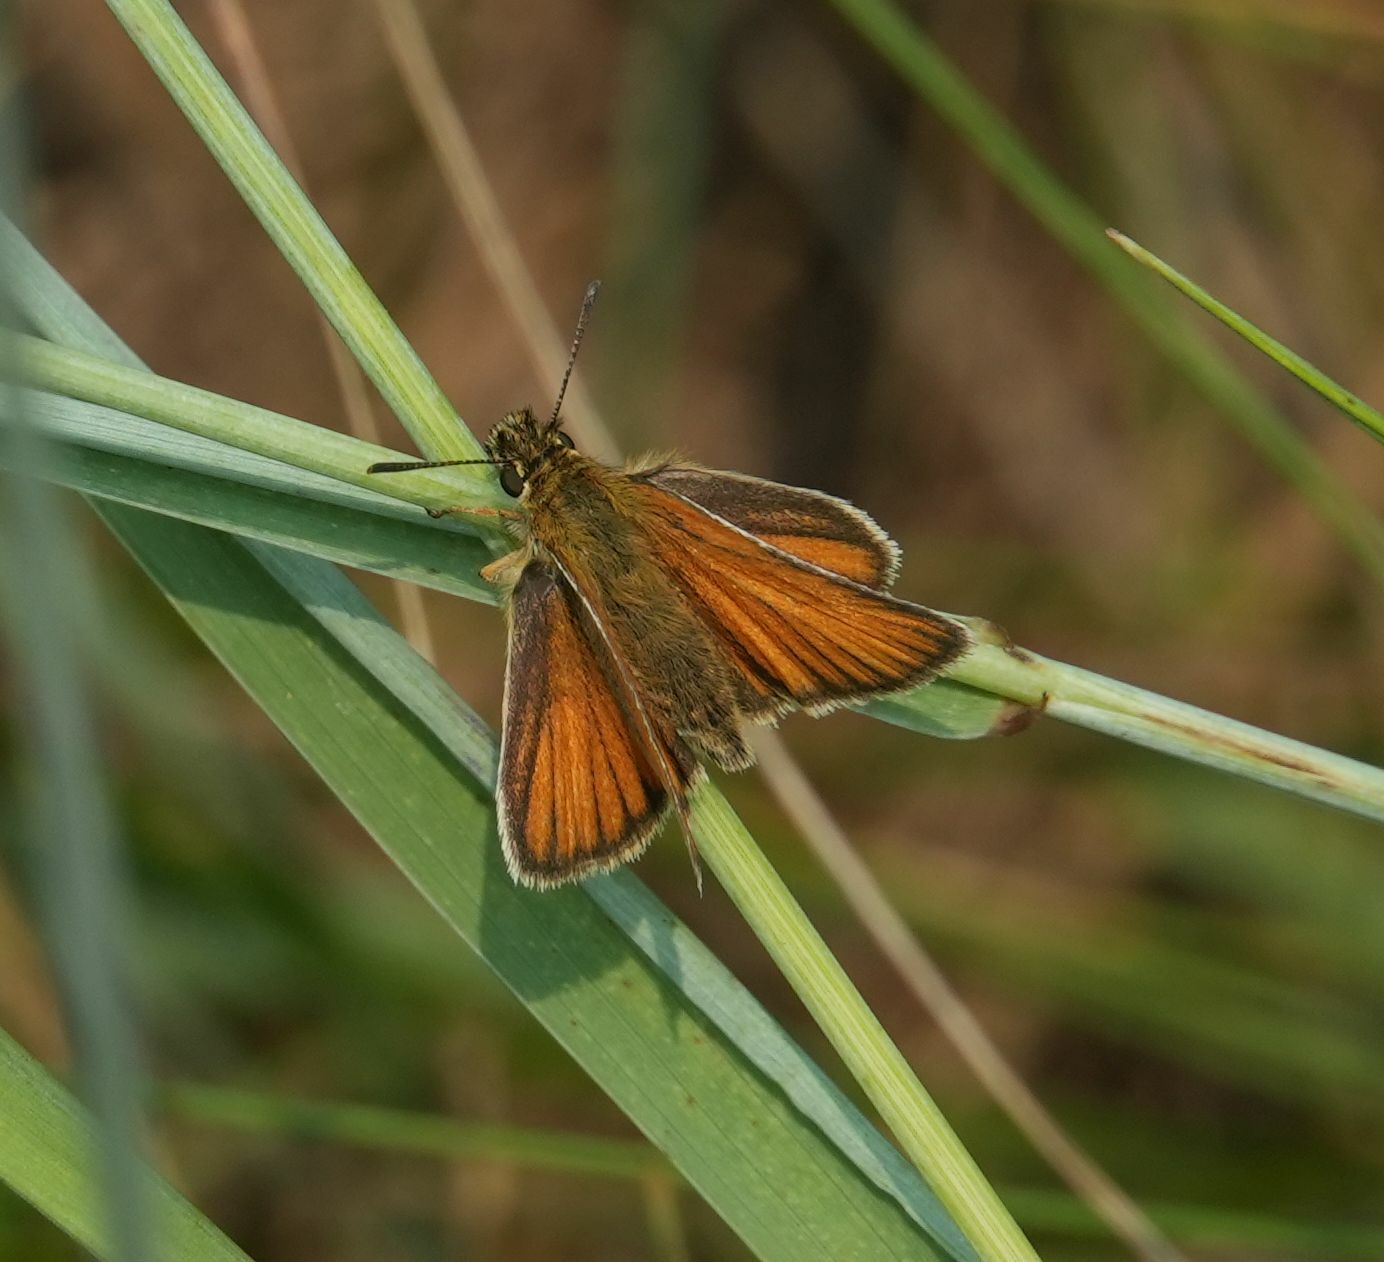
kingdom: Animalia
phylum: Arthropoda
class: Insecta
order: Lepidoptera
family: Hesperiidae
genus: Thymelicus
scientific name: Thymelicus lineola
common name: Essex skipper
